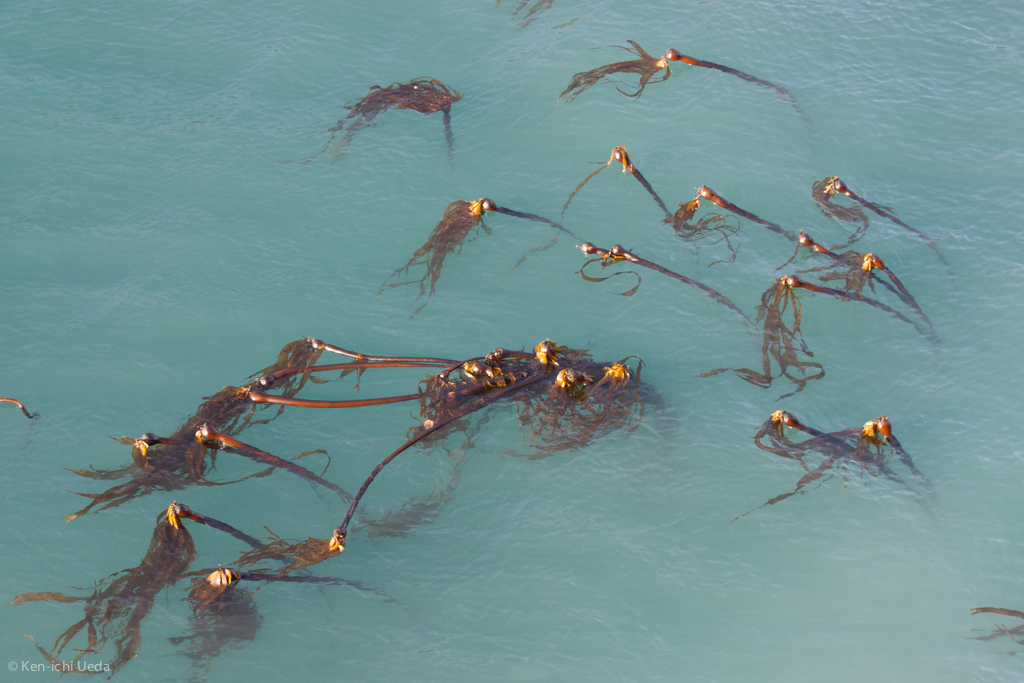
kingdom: Chromista
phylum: Ochrophyta
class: Phaeophyceae
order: Laminariales
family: Laminariaceae
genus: Nereocystis
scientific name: Nereocystis luetkeana
